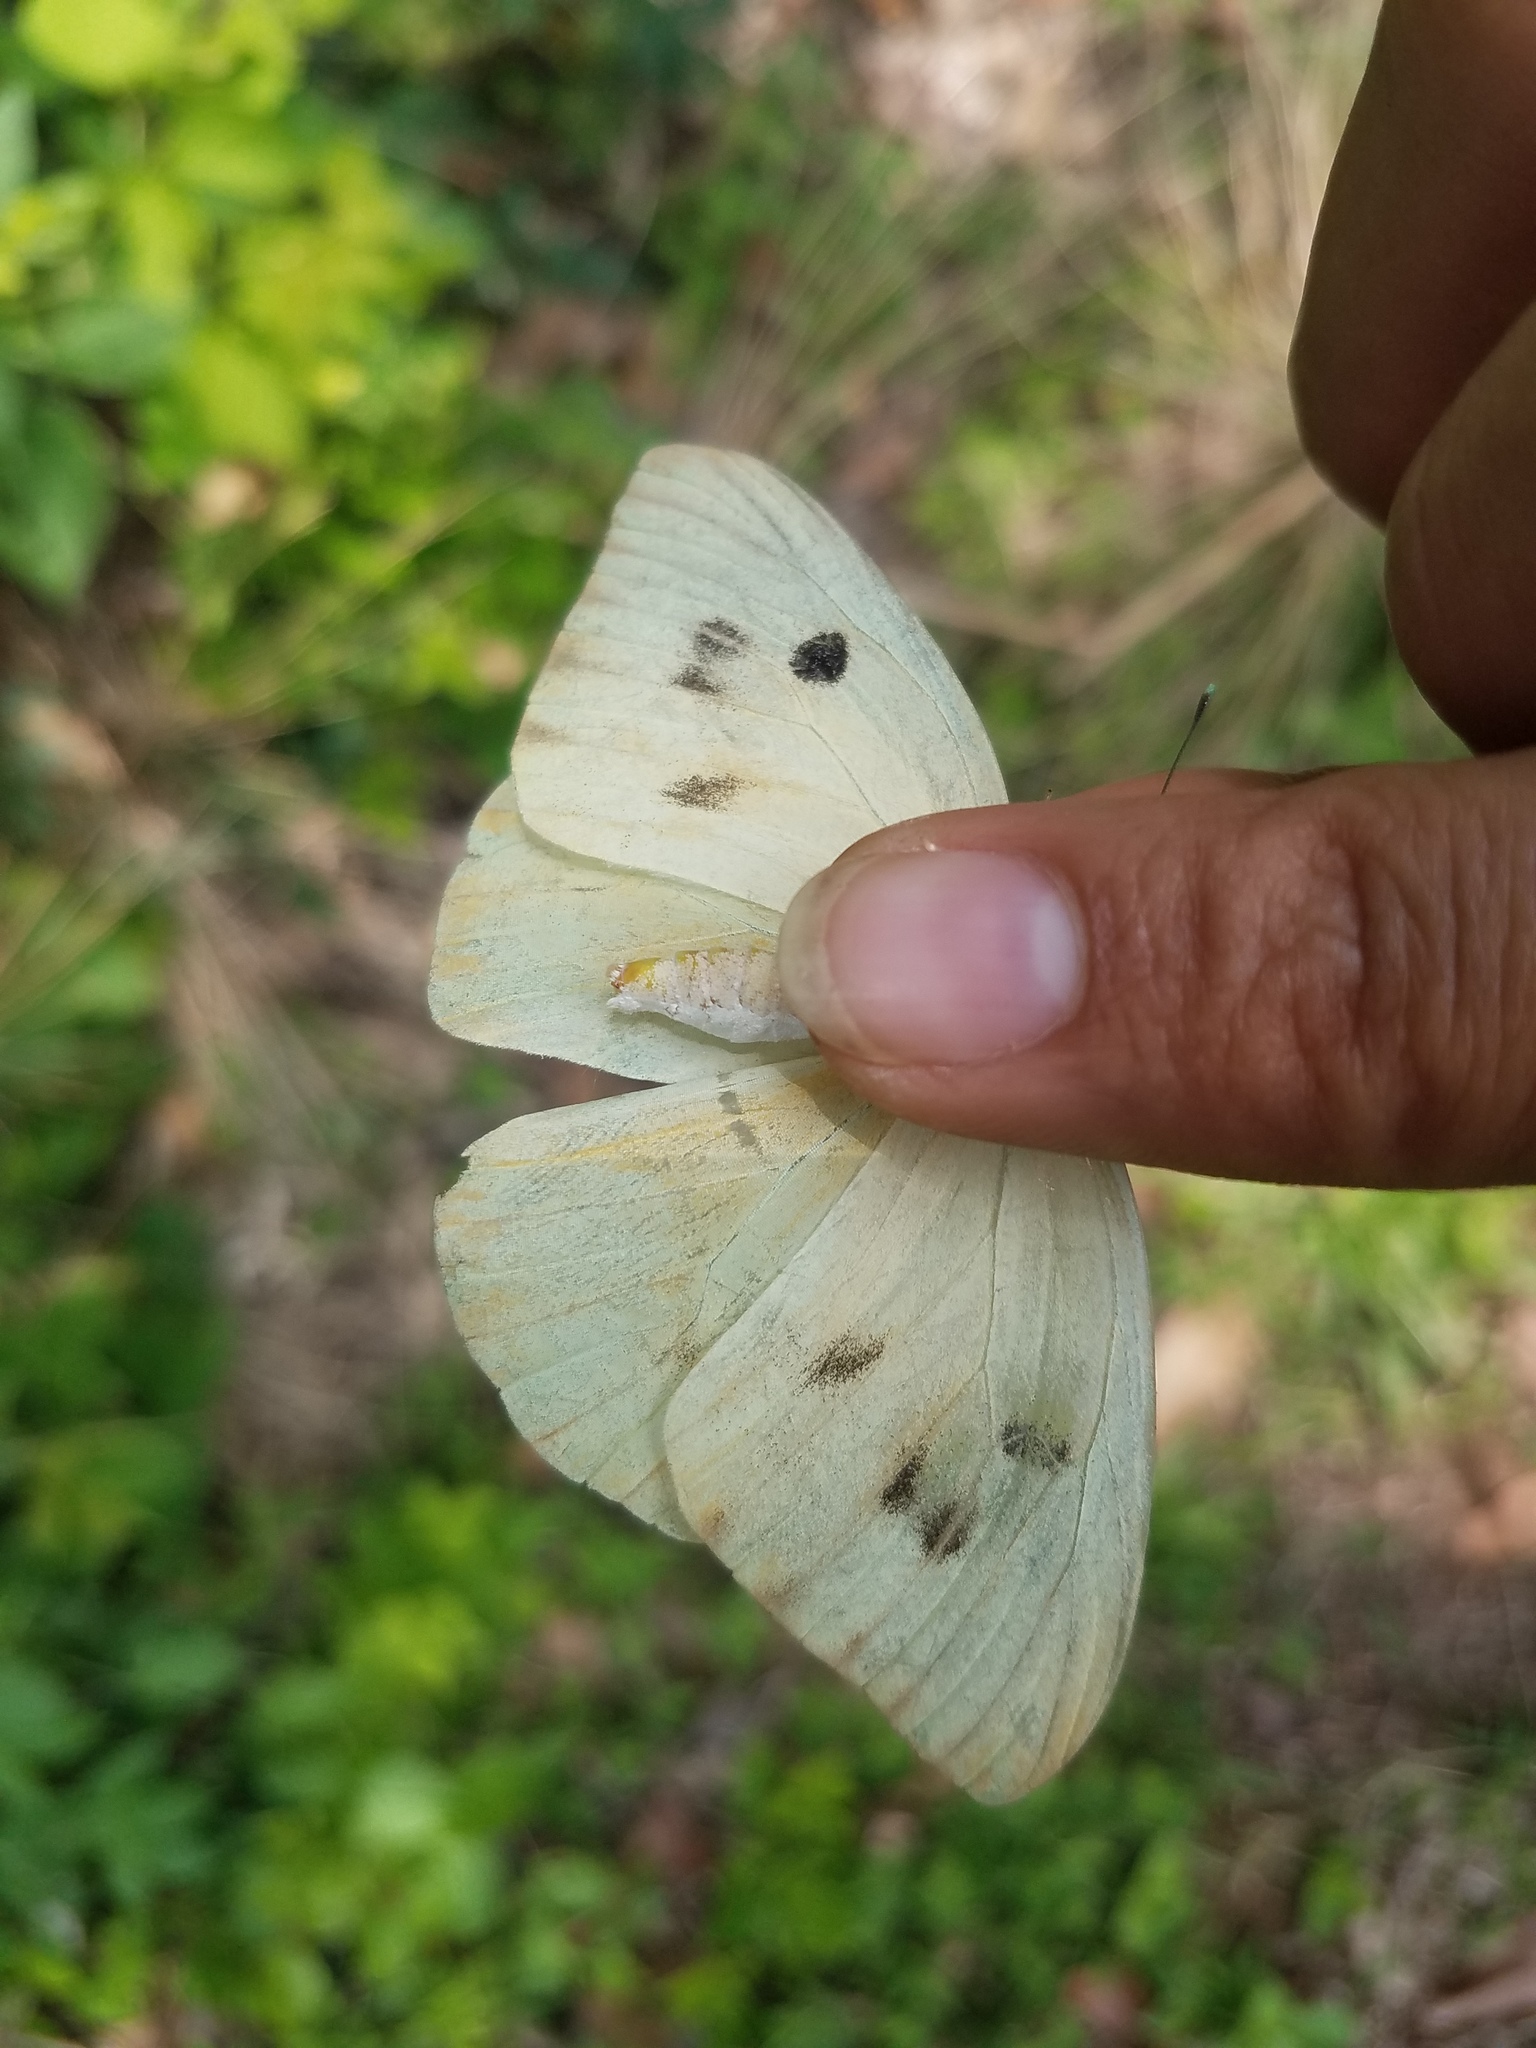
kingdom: Animalia
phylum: Arthropoda
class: Insecta
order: Lepidoptera
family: Pieridae
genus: Ganyra
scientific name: Ganyra josephina
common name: Giant white
